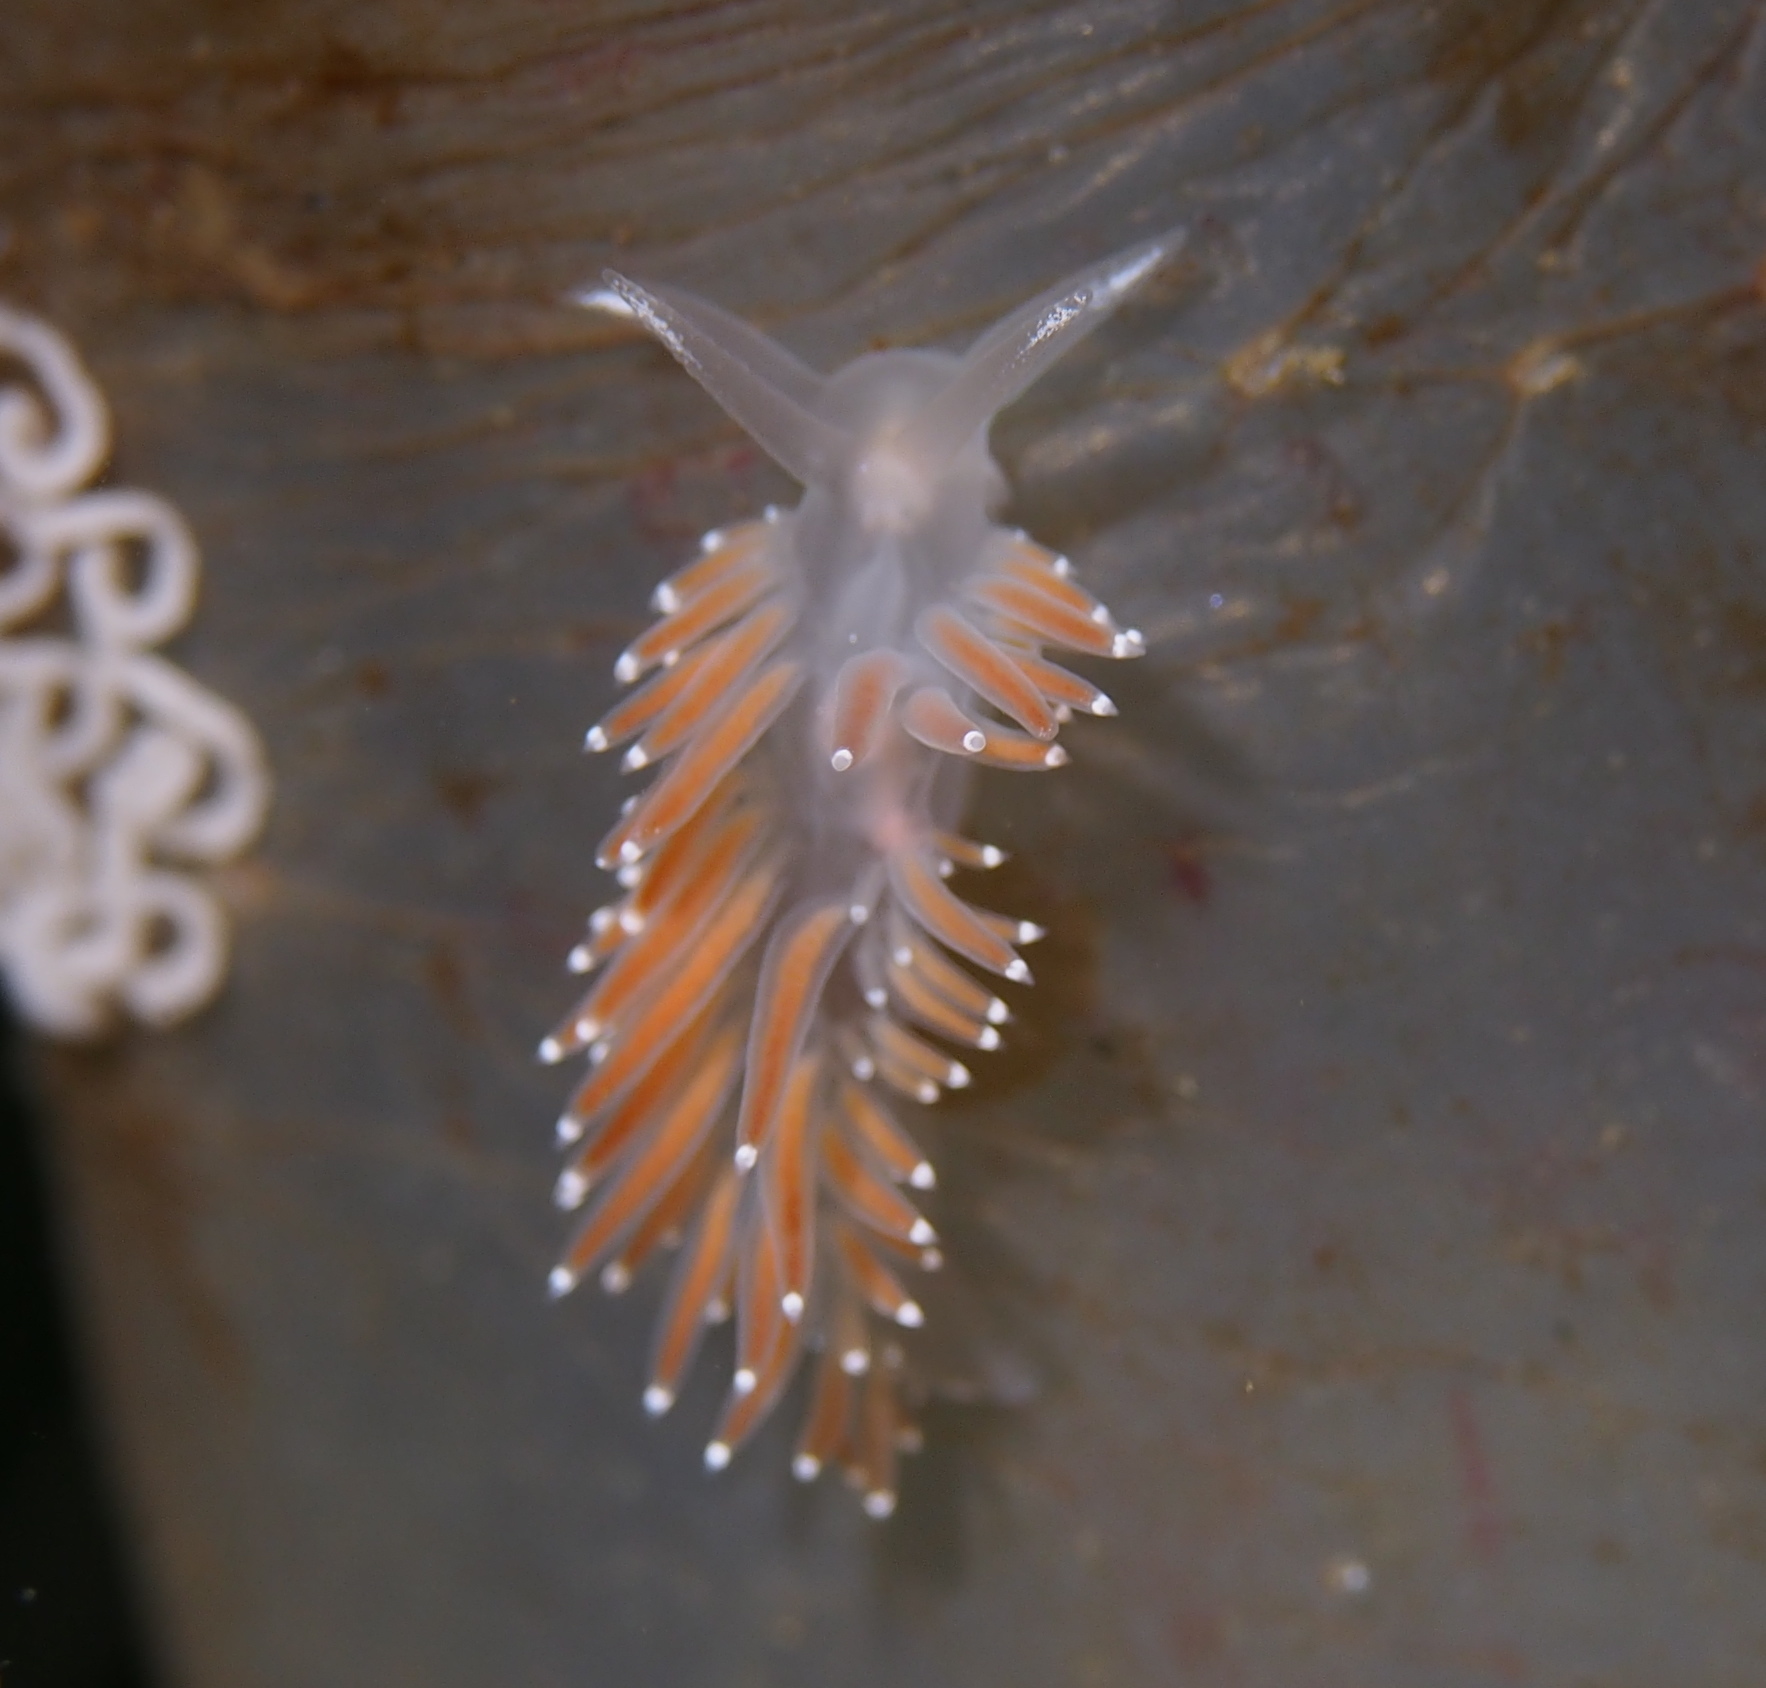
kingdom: Animalia
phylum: Mollusca
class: Gastropoda
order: Nudibranchia
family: Coryphellidae
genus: Coryphella
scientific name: Coryphella verrucosa
